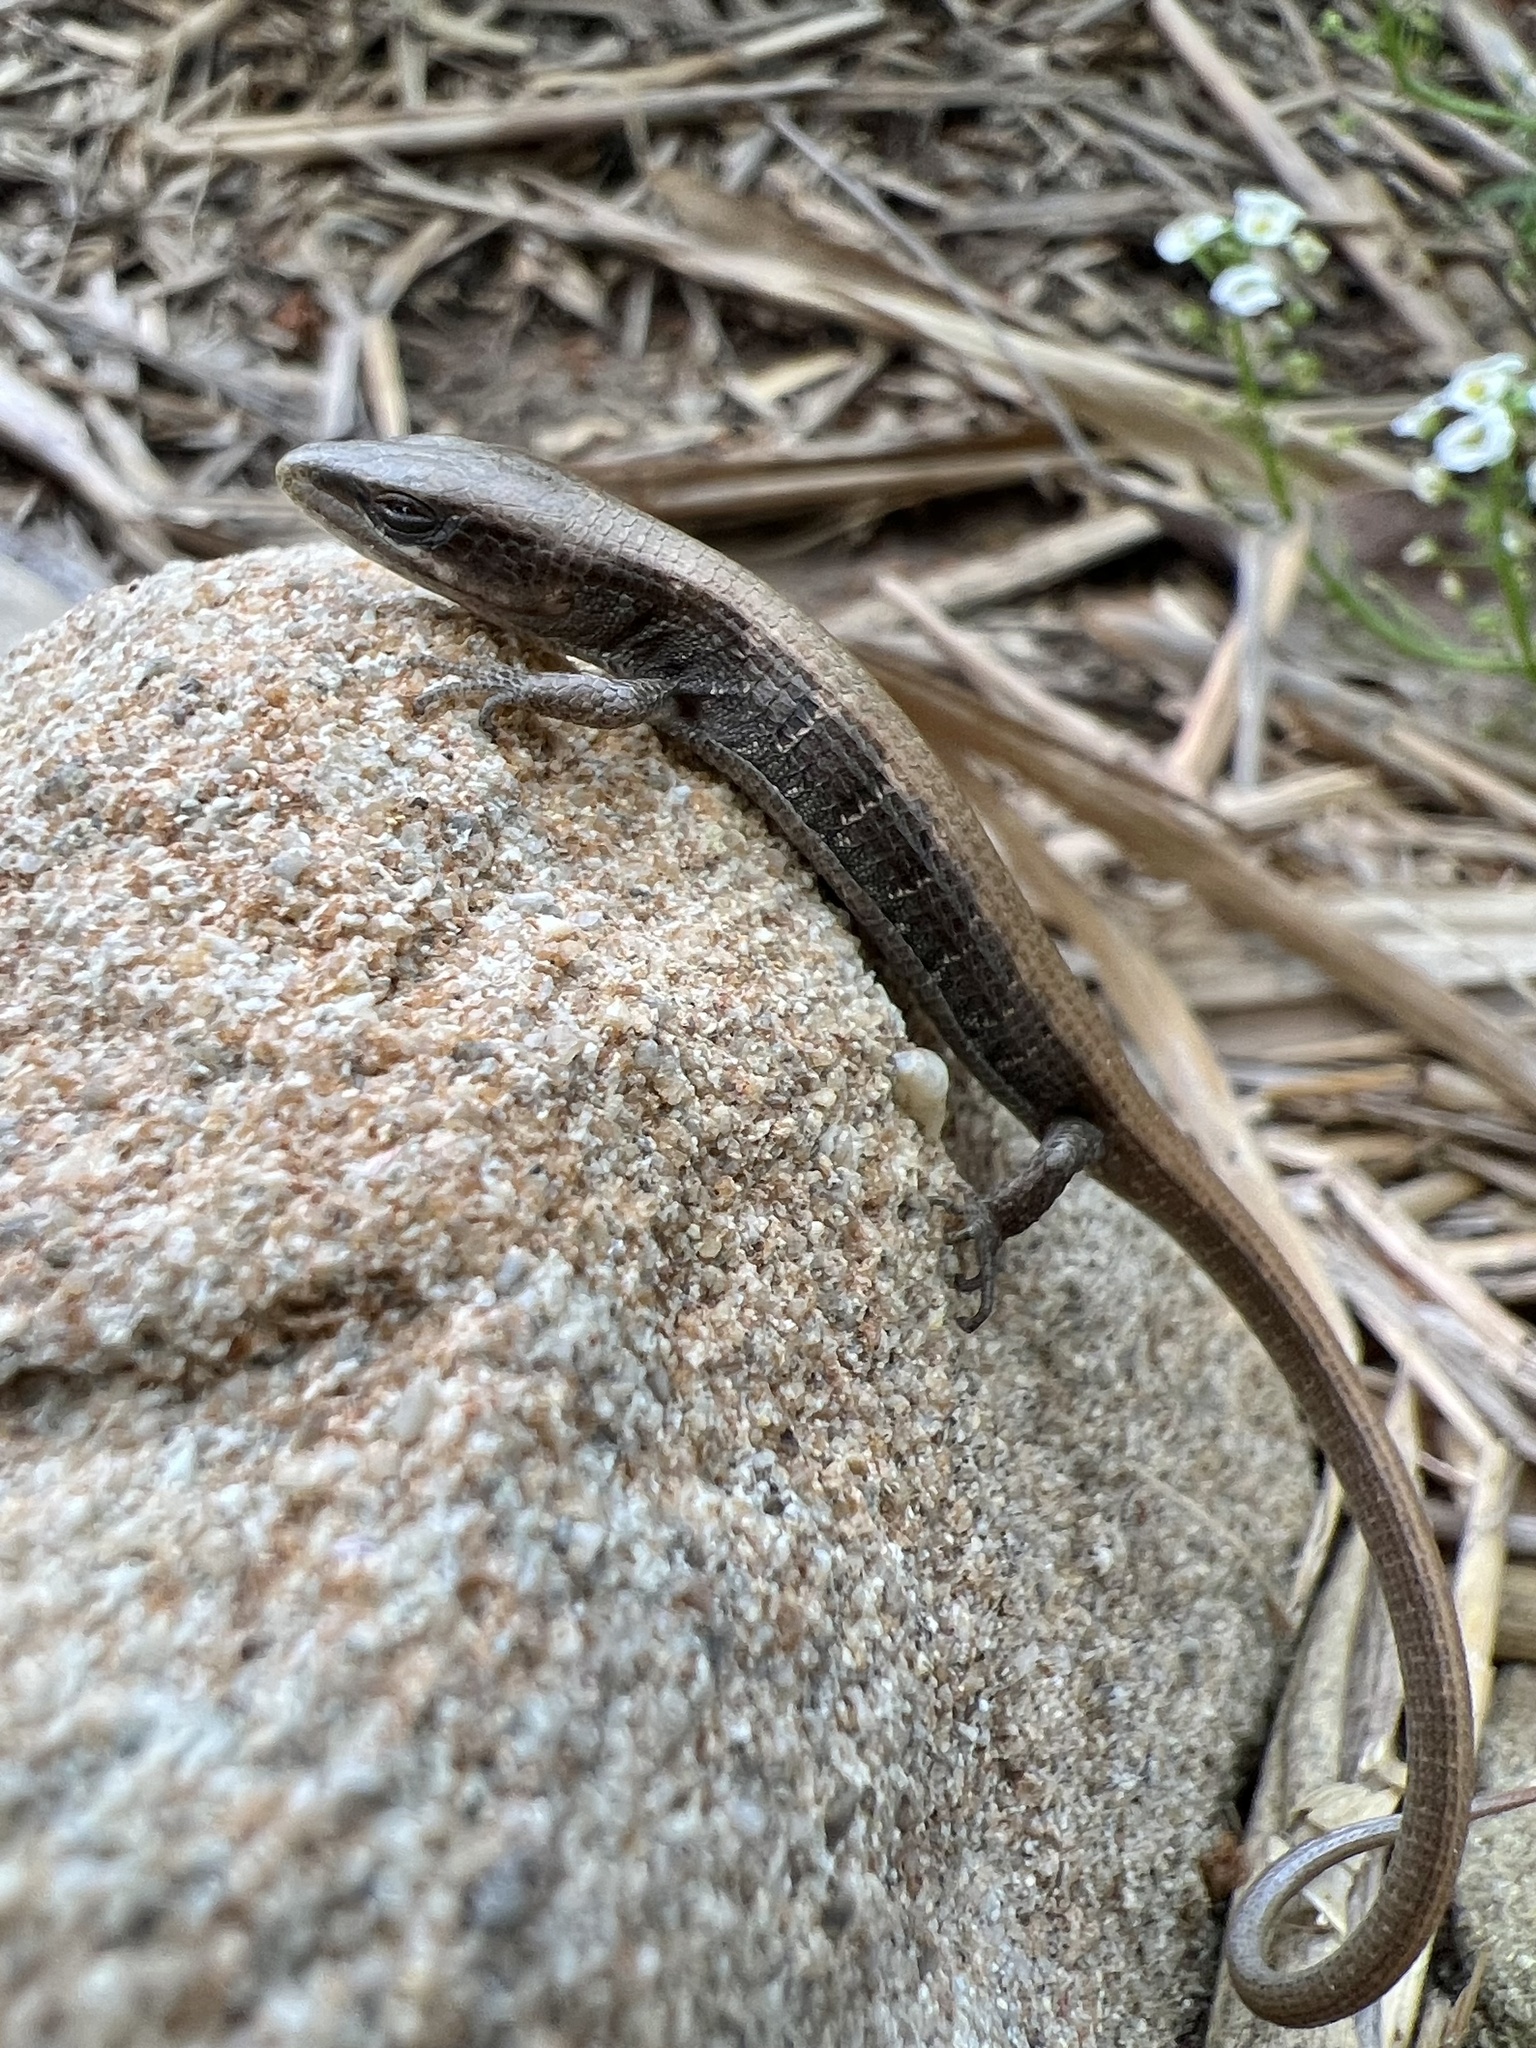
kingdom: Animalia
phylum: Chordata
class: Squamata
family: Anguidae
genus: Elgaria
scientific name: Elgaria multicarinata
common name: Southern alligator lizard
